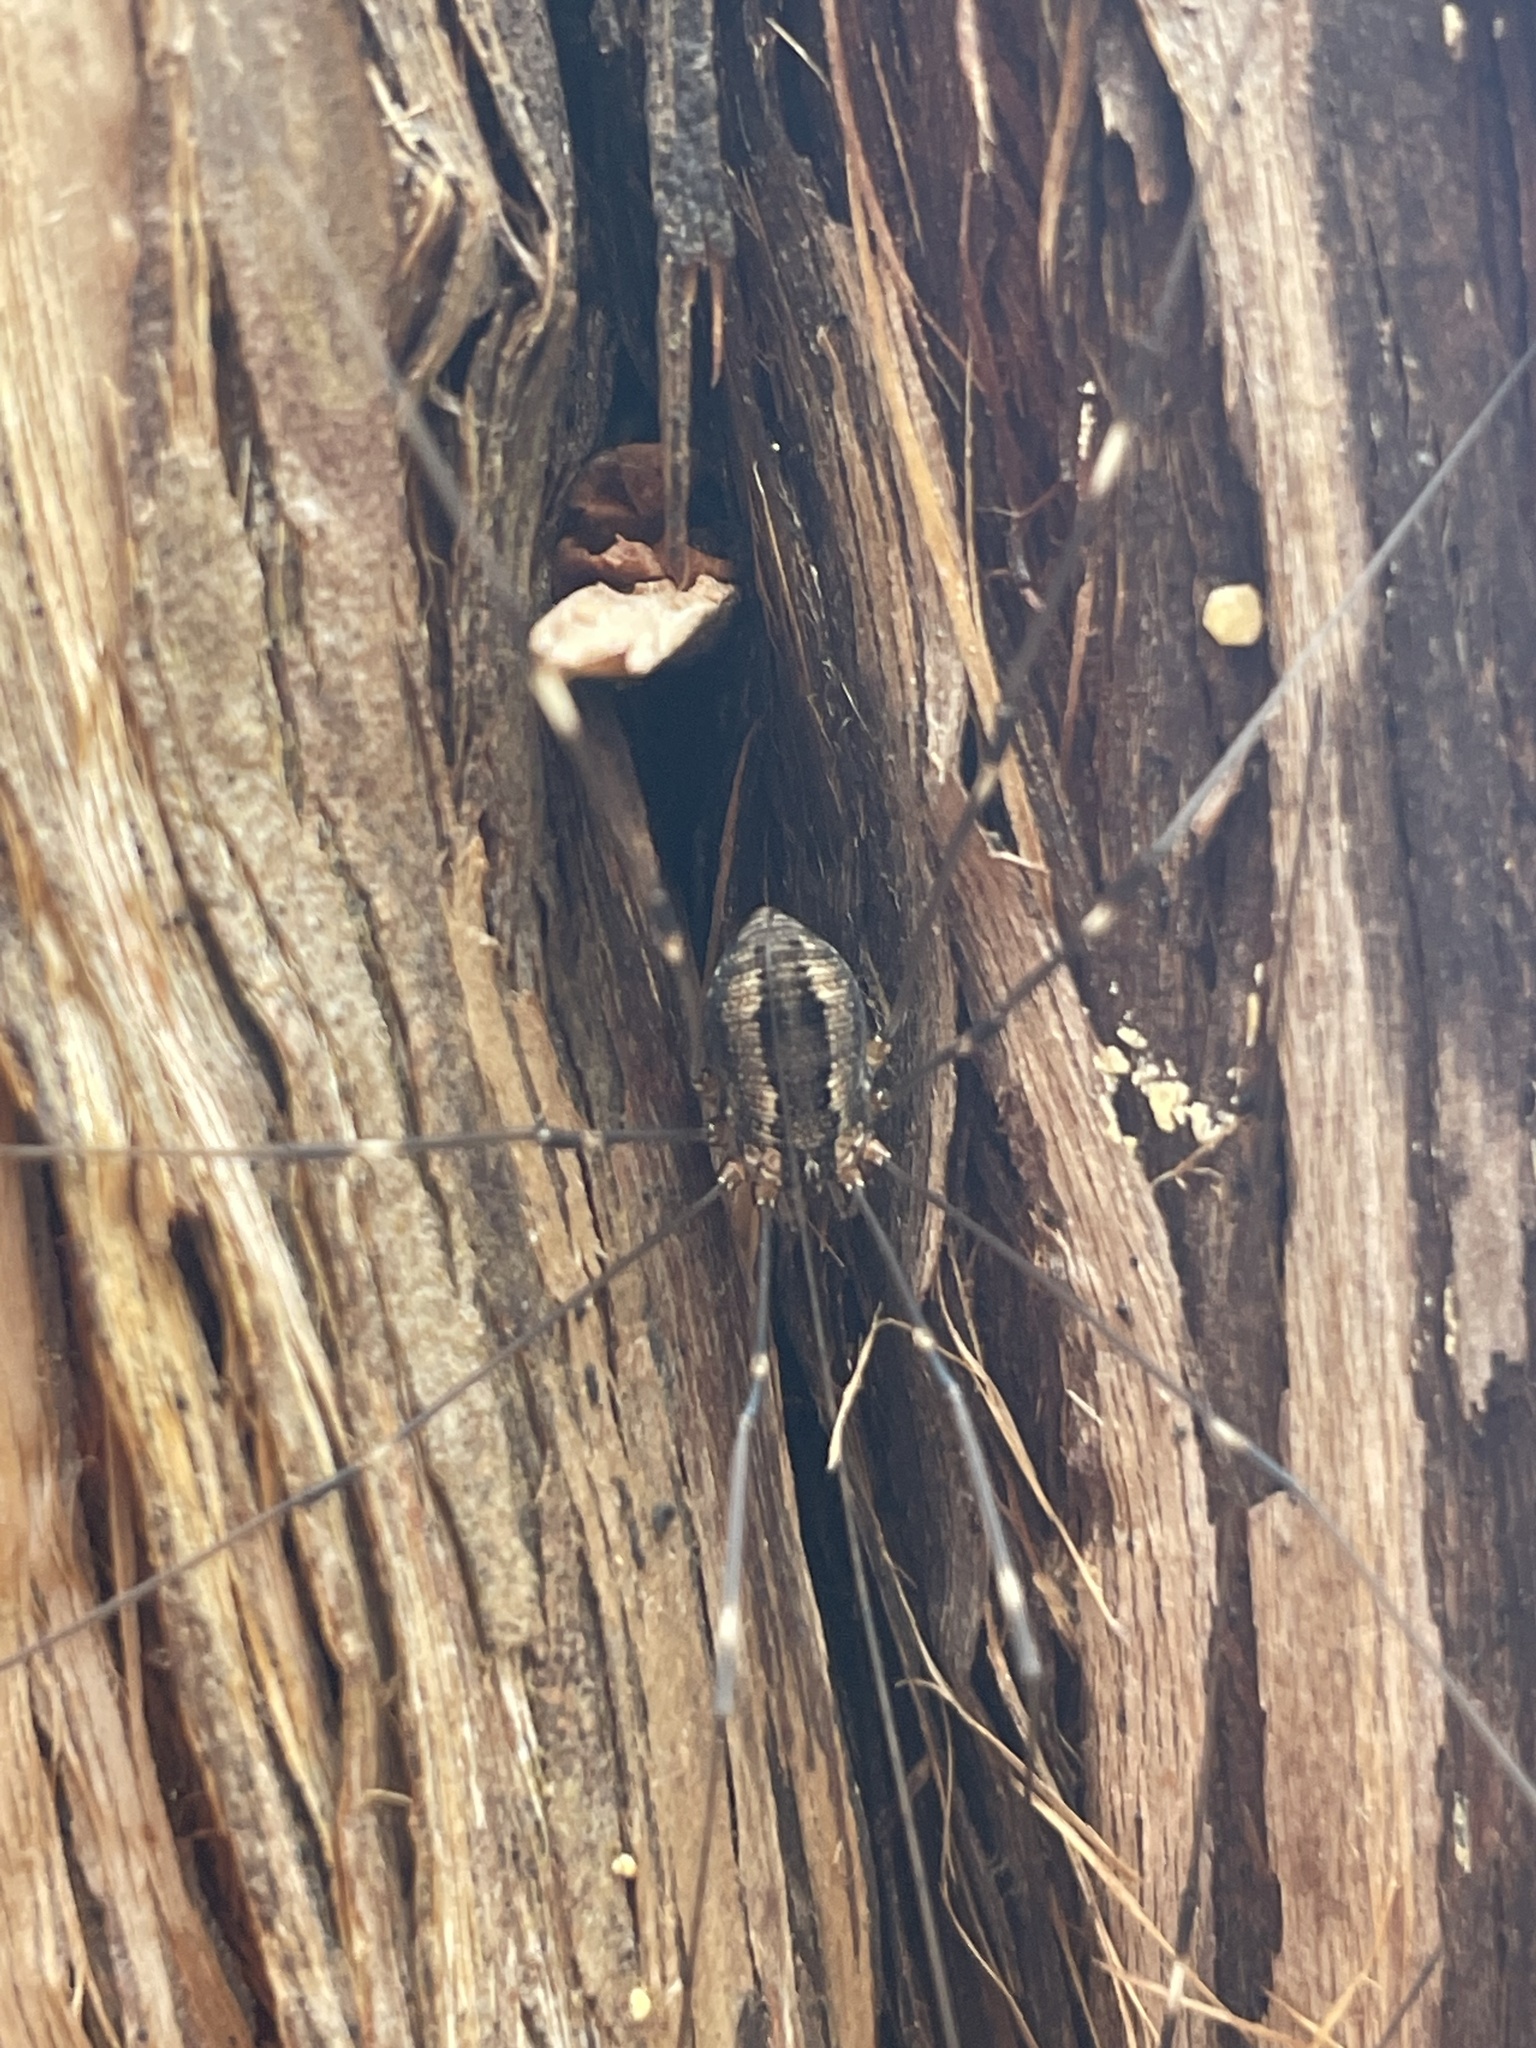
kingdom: Animalia
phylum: Arthropoda
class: Arachnida
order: Opiliones
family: Sclerosomatidae
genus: Leiobunum
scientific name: Leiobunum townsendi
